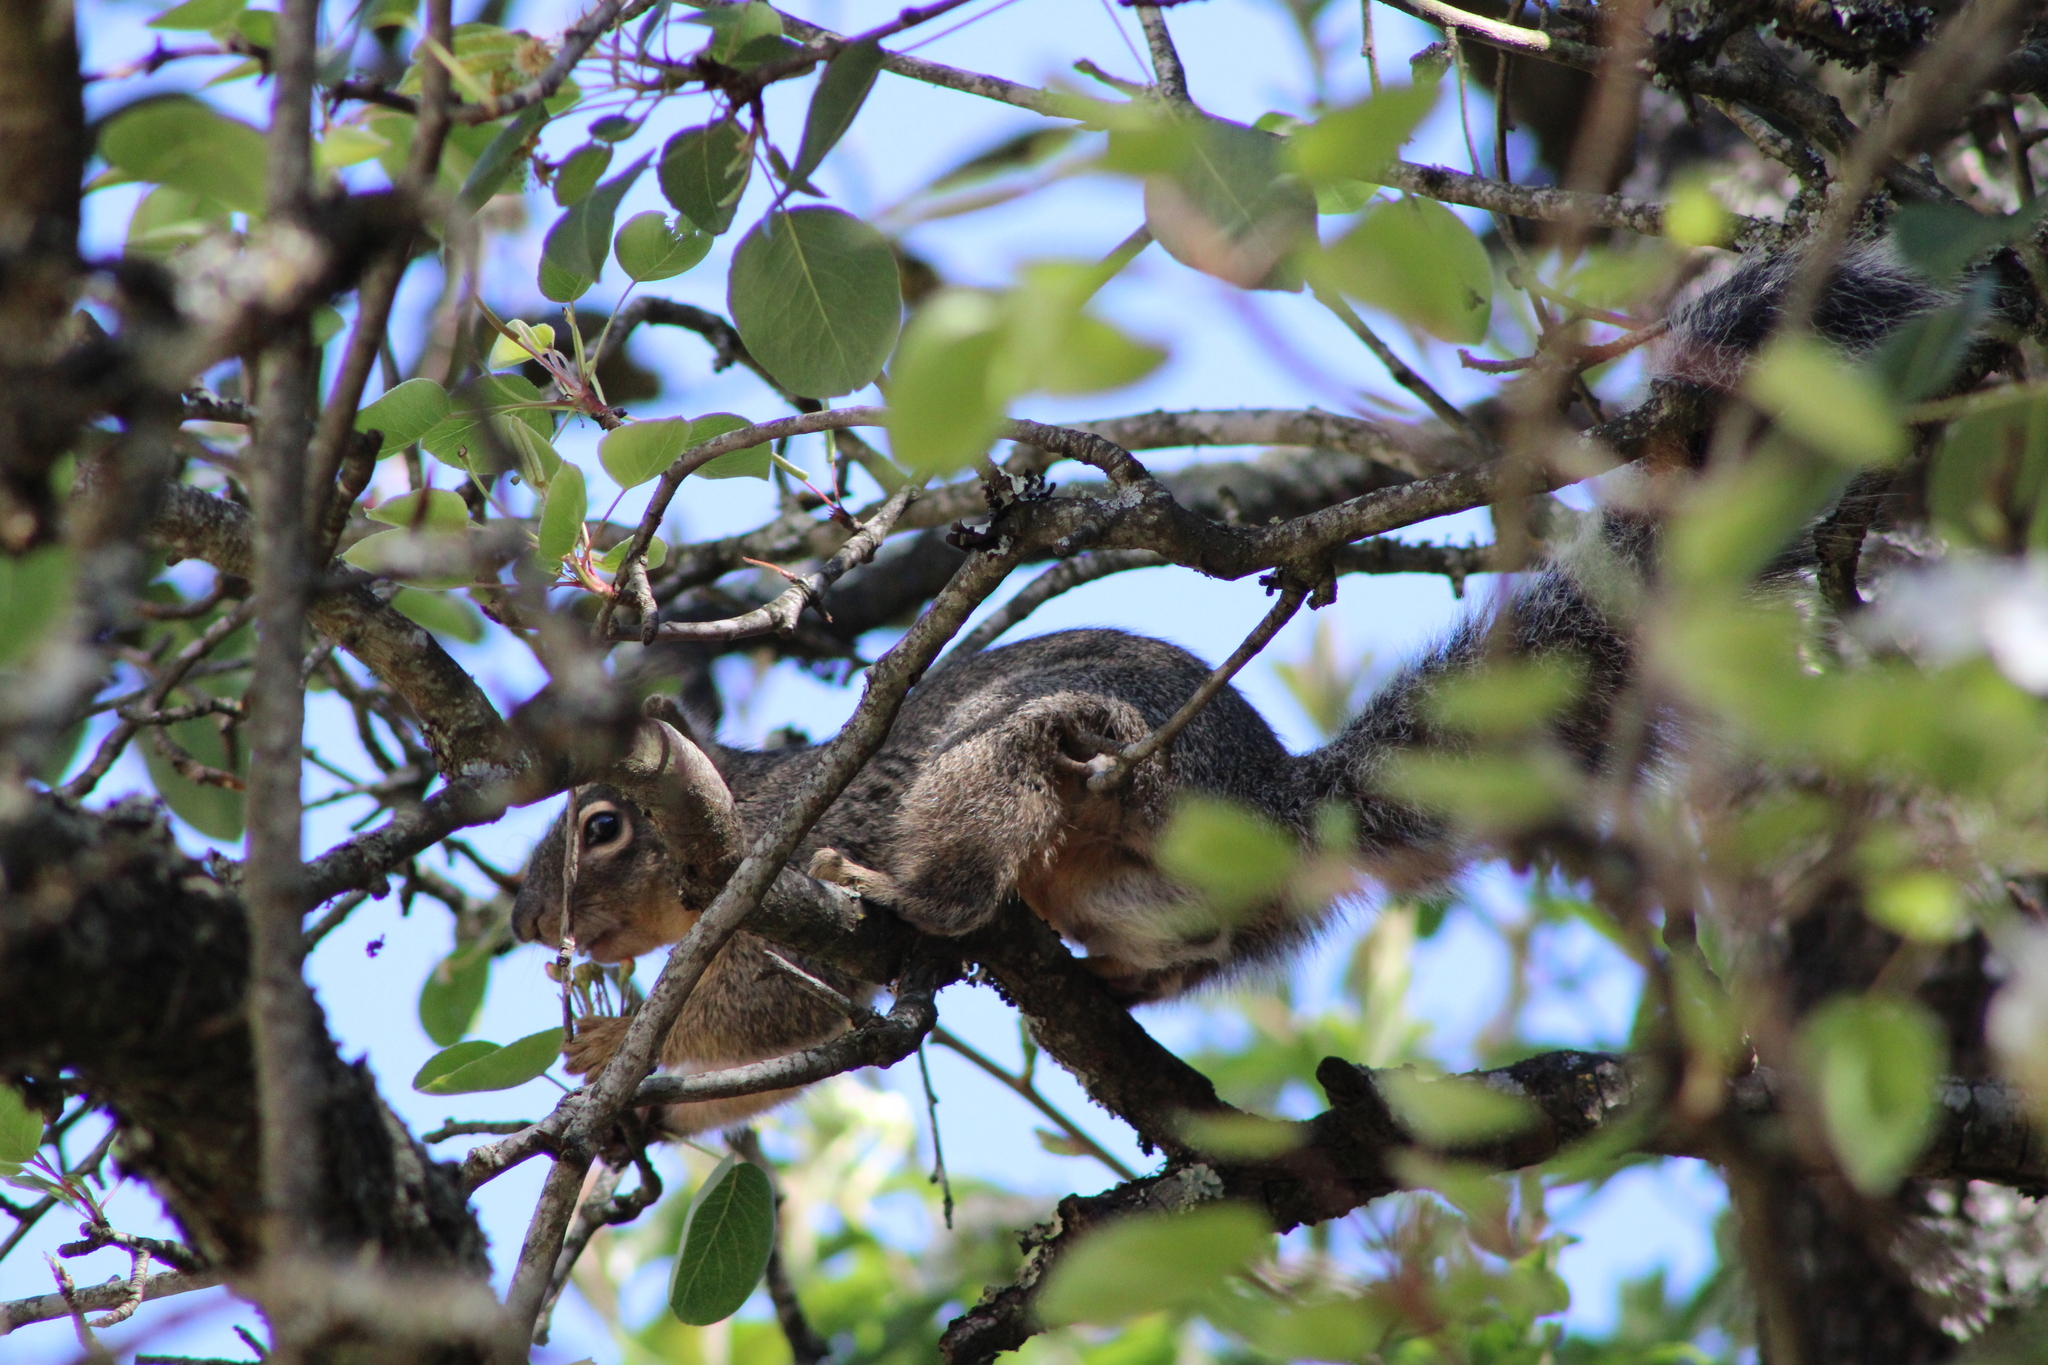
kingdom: Animalia
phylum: Chordata
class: Mammalia
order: Rodentia
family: Sciuridae
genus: Sciurus
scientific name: Sciurus oculatus
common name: Peters's squirrel
